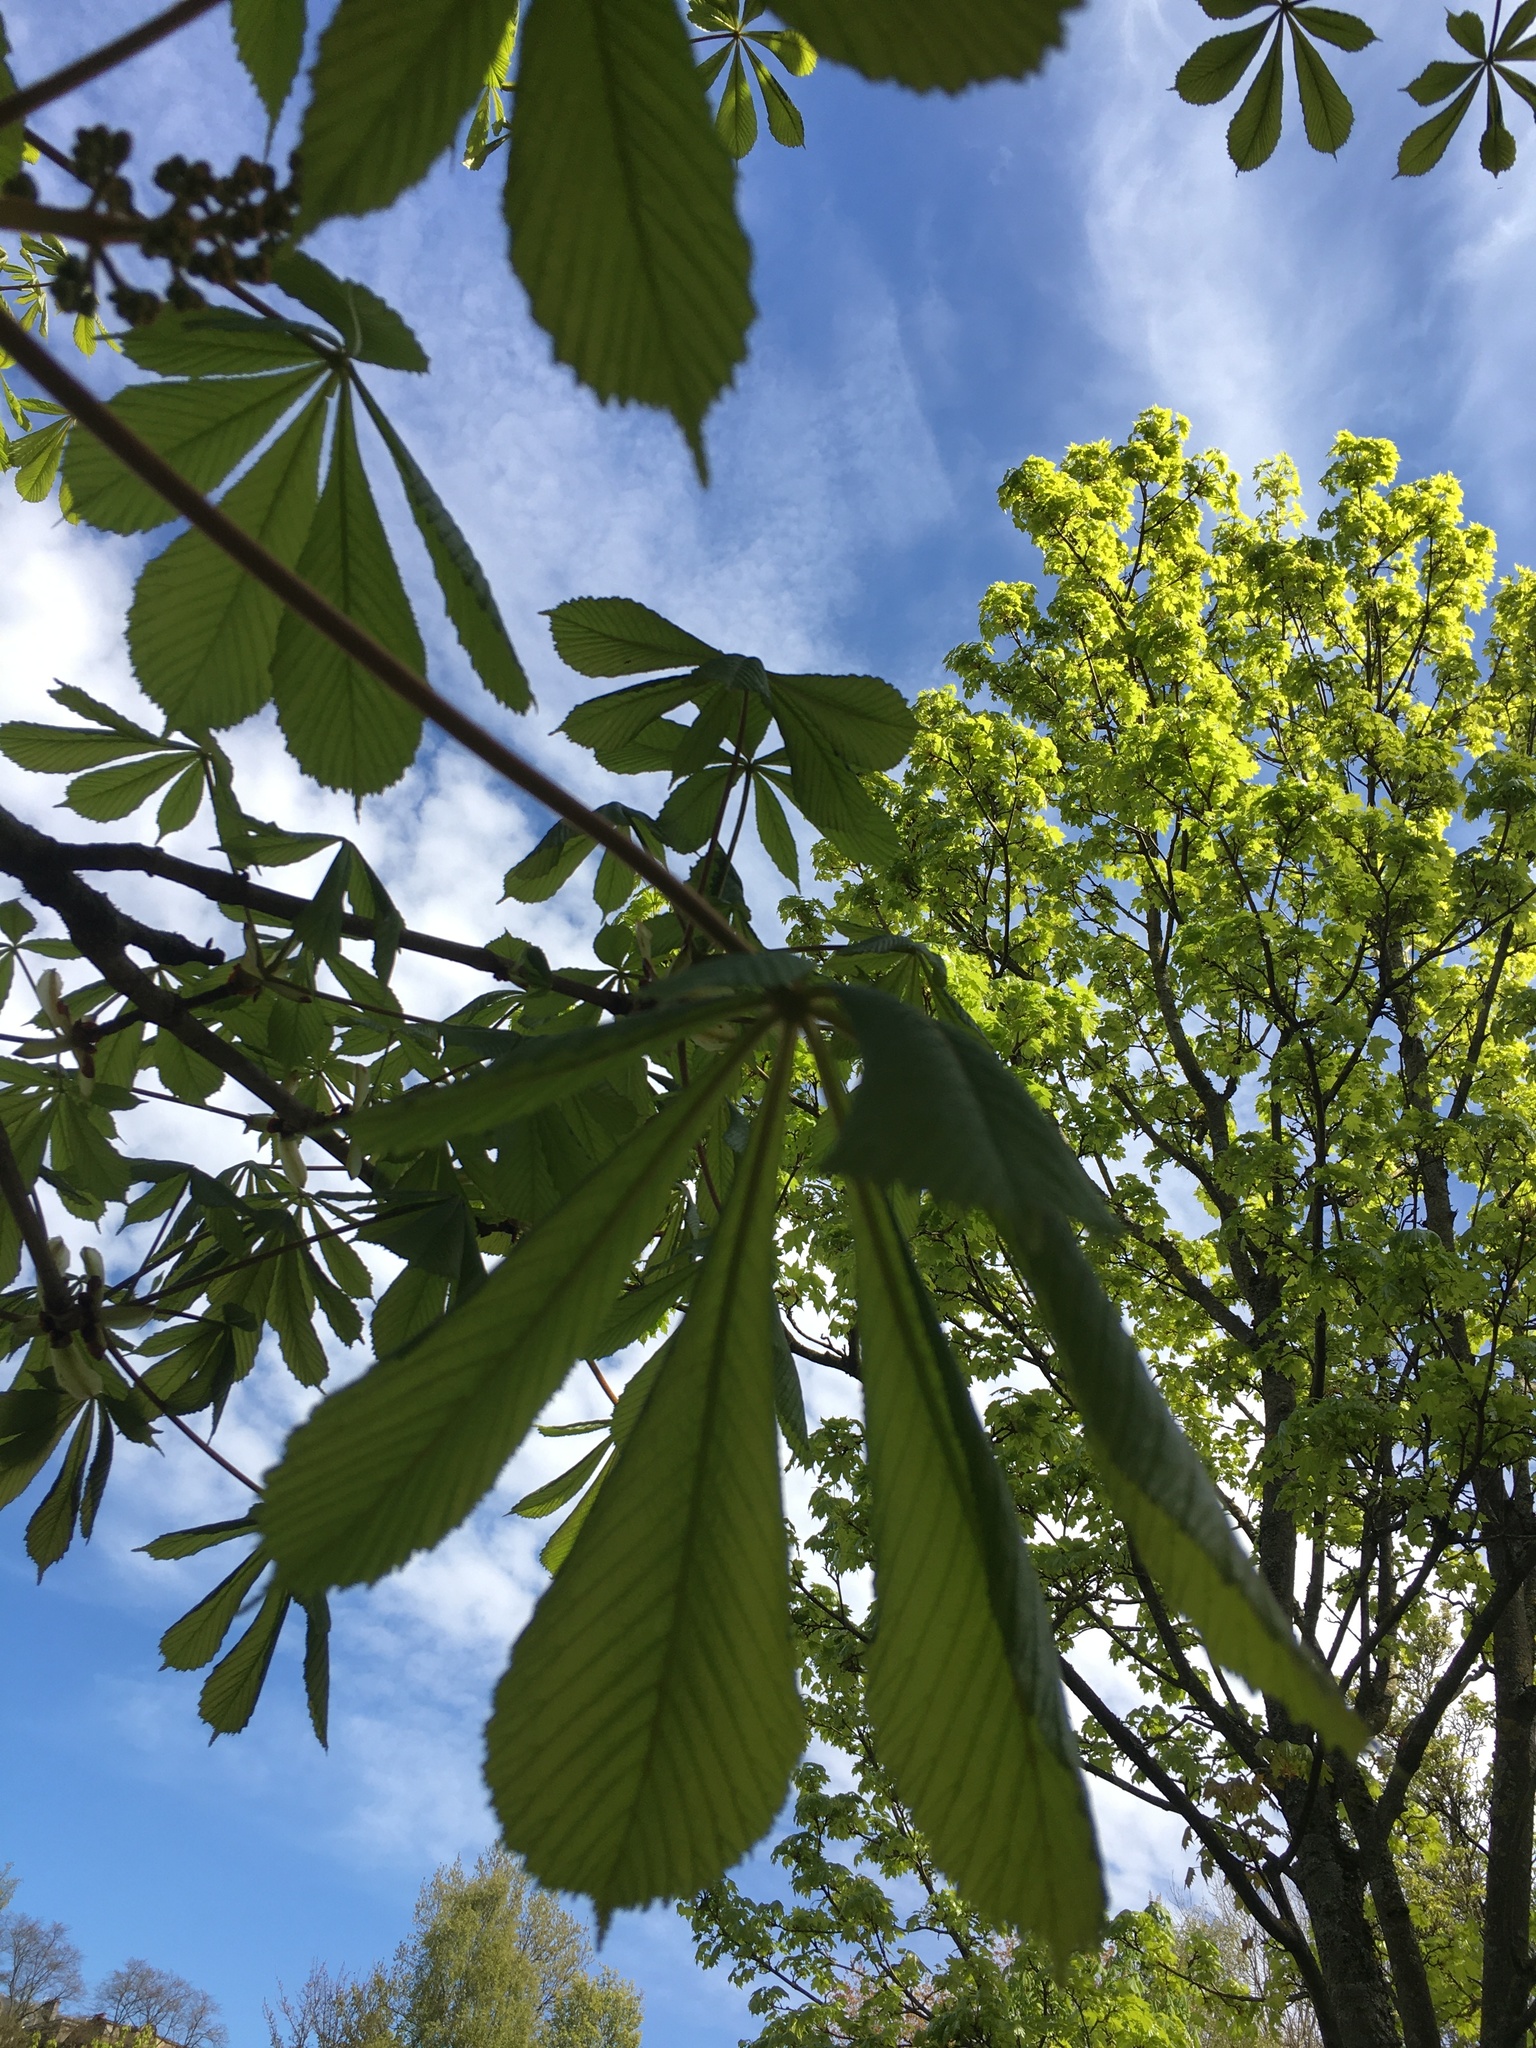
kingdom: Plantae
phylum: Tracheophyta
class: Magnoliopsida
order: Sapindales
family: Sapindaceae
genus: Aesculus
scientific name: Aesculus hippocastanum
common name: Horse-chestnut
